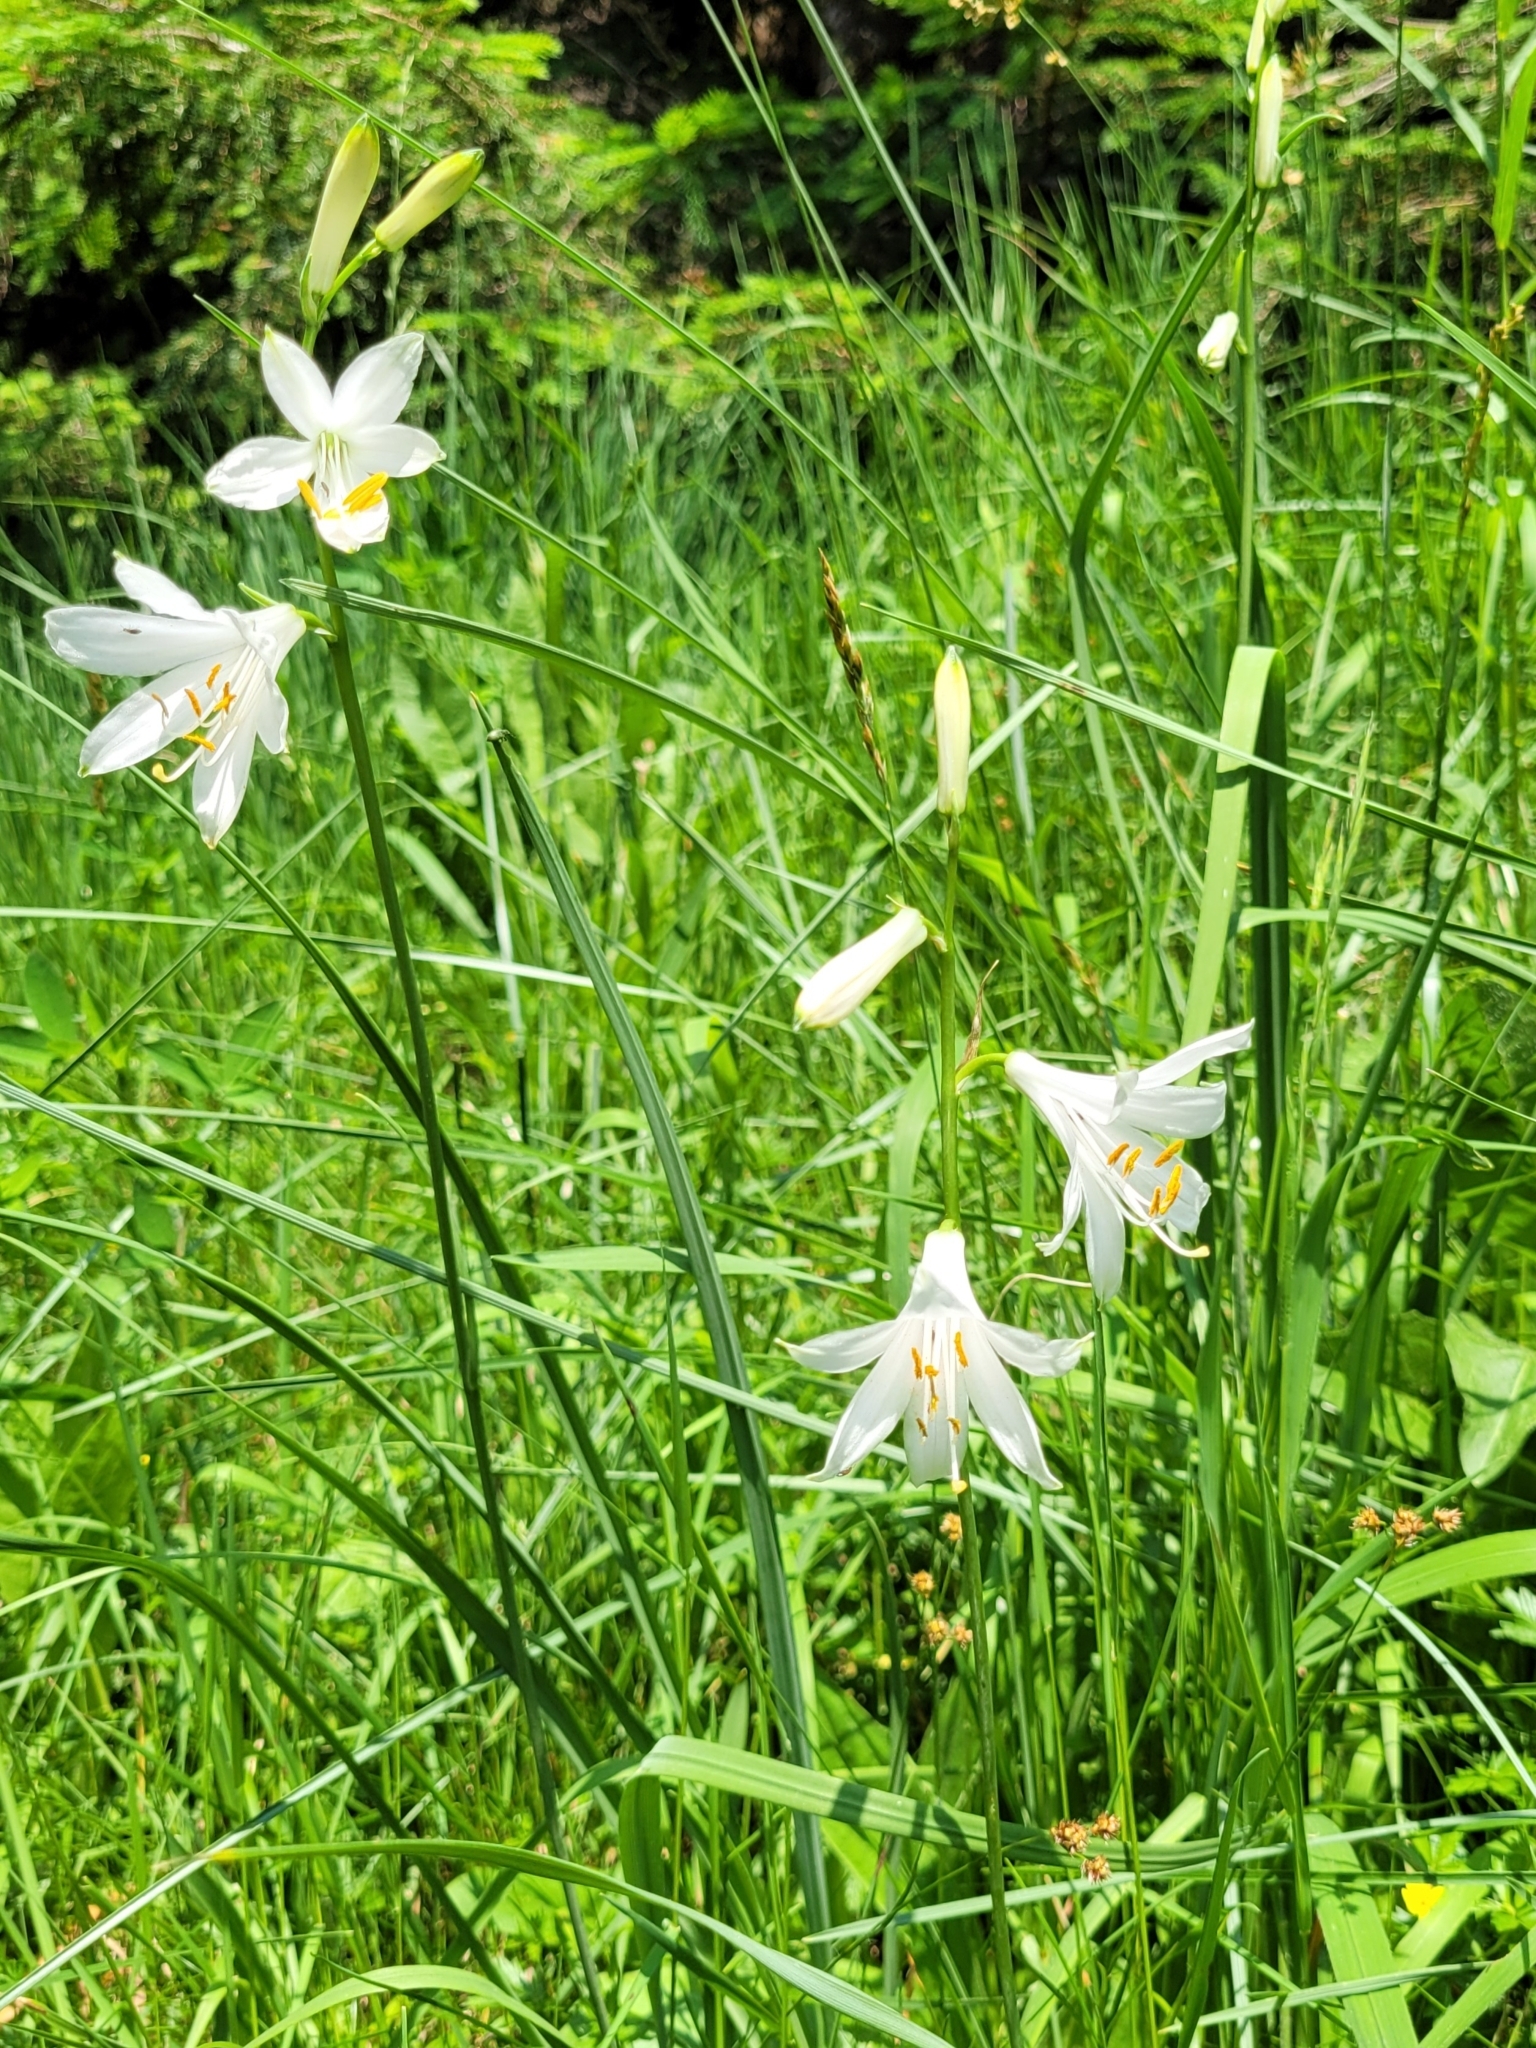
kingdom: Plantae
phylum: Tracheophyta
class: Liliopsida
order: Asparagales
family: Asparagaceae
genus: Paradisea
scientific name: Paradisea liliastrum
